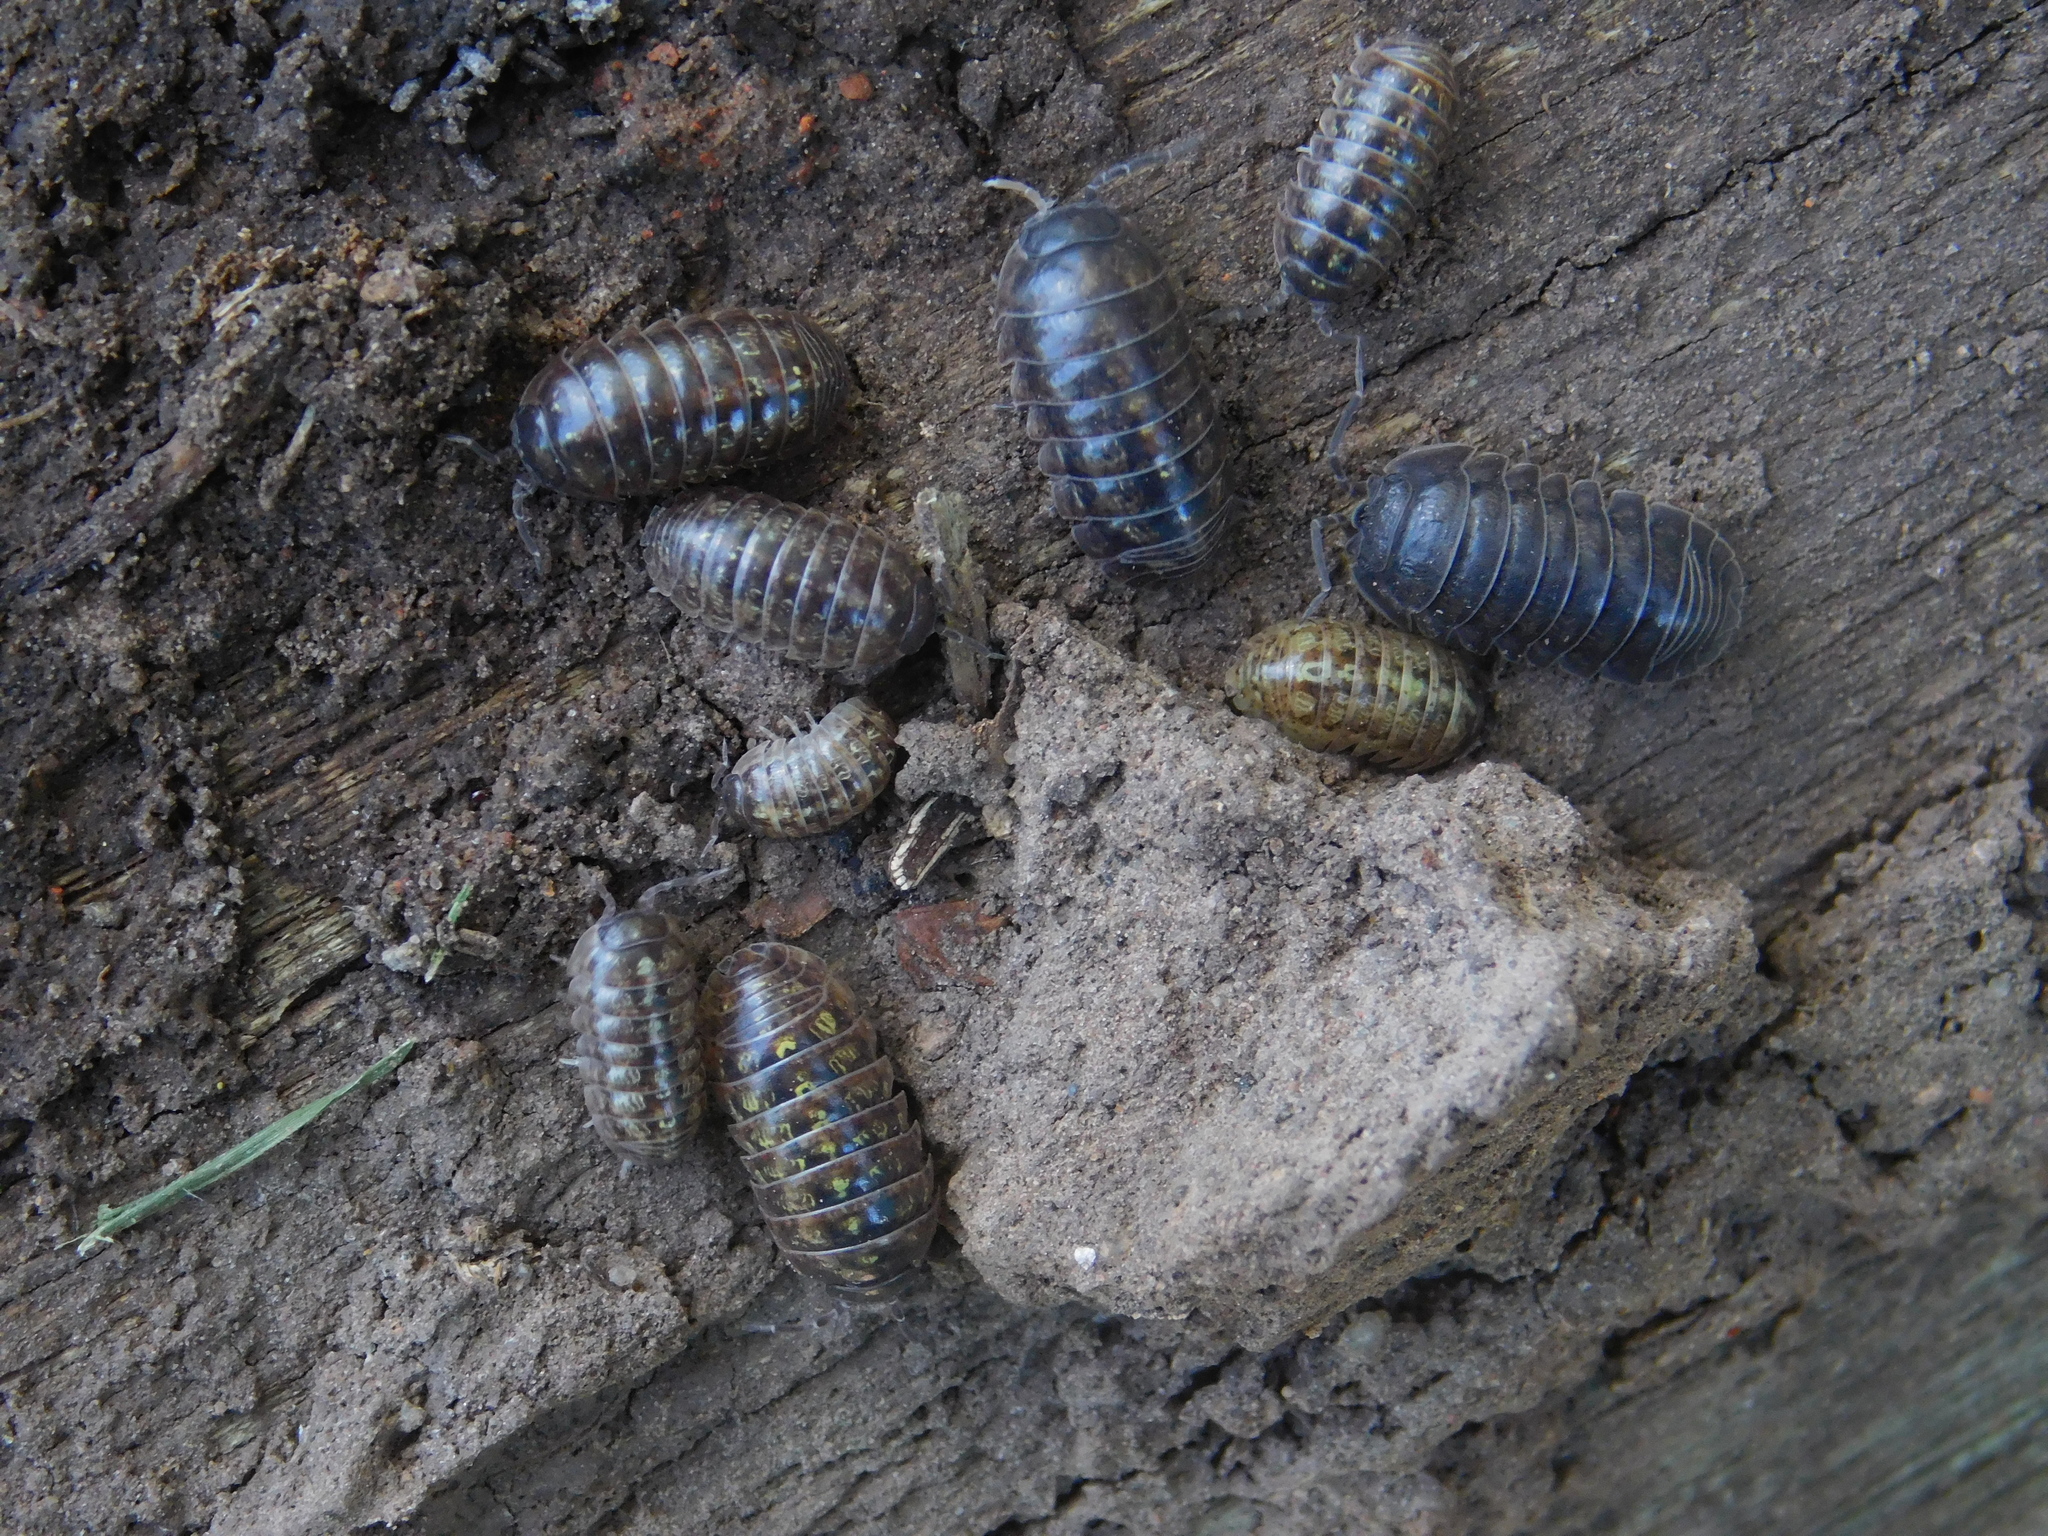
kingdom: Animalia
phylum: Arthropoda
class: Malacostraca
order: Isopoda
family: Armadillidiidae
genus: Armadillidium
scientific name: Armadillidium vulgare
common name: Common pill woodlouse
